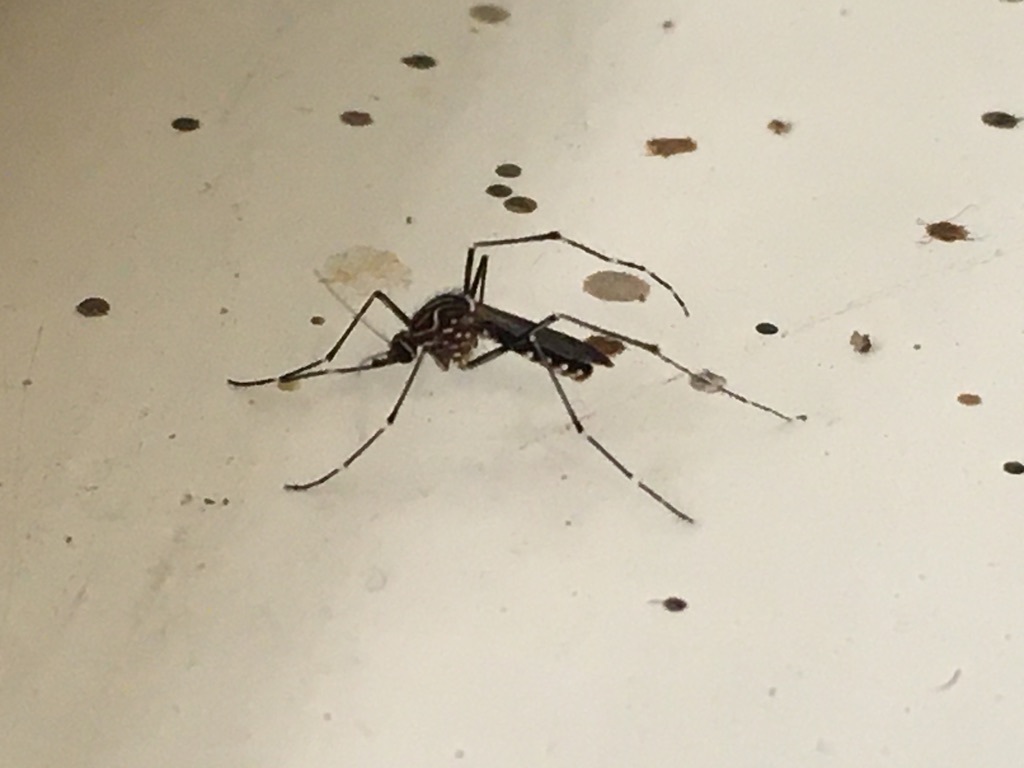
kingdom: Animalia
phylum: Arthropoda
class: Insecta
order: Diptera
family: Culicidae
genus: Aedes
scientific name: Aedes notoscriptus
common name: Australian backyard mosquito
